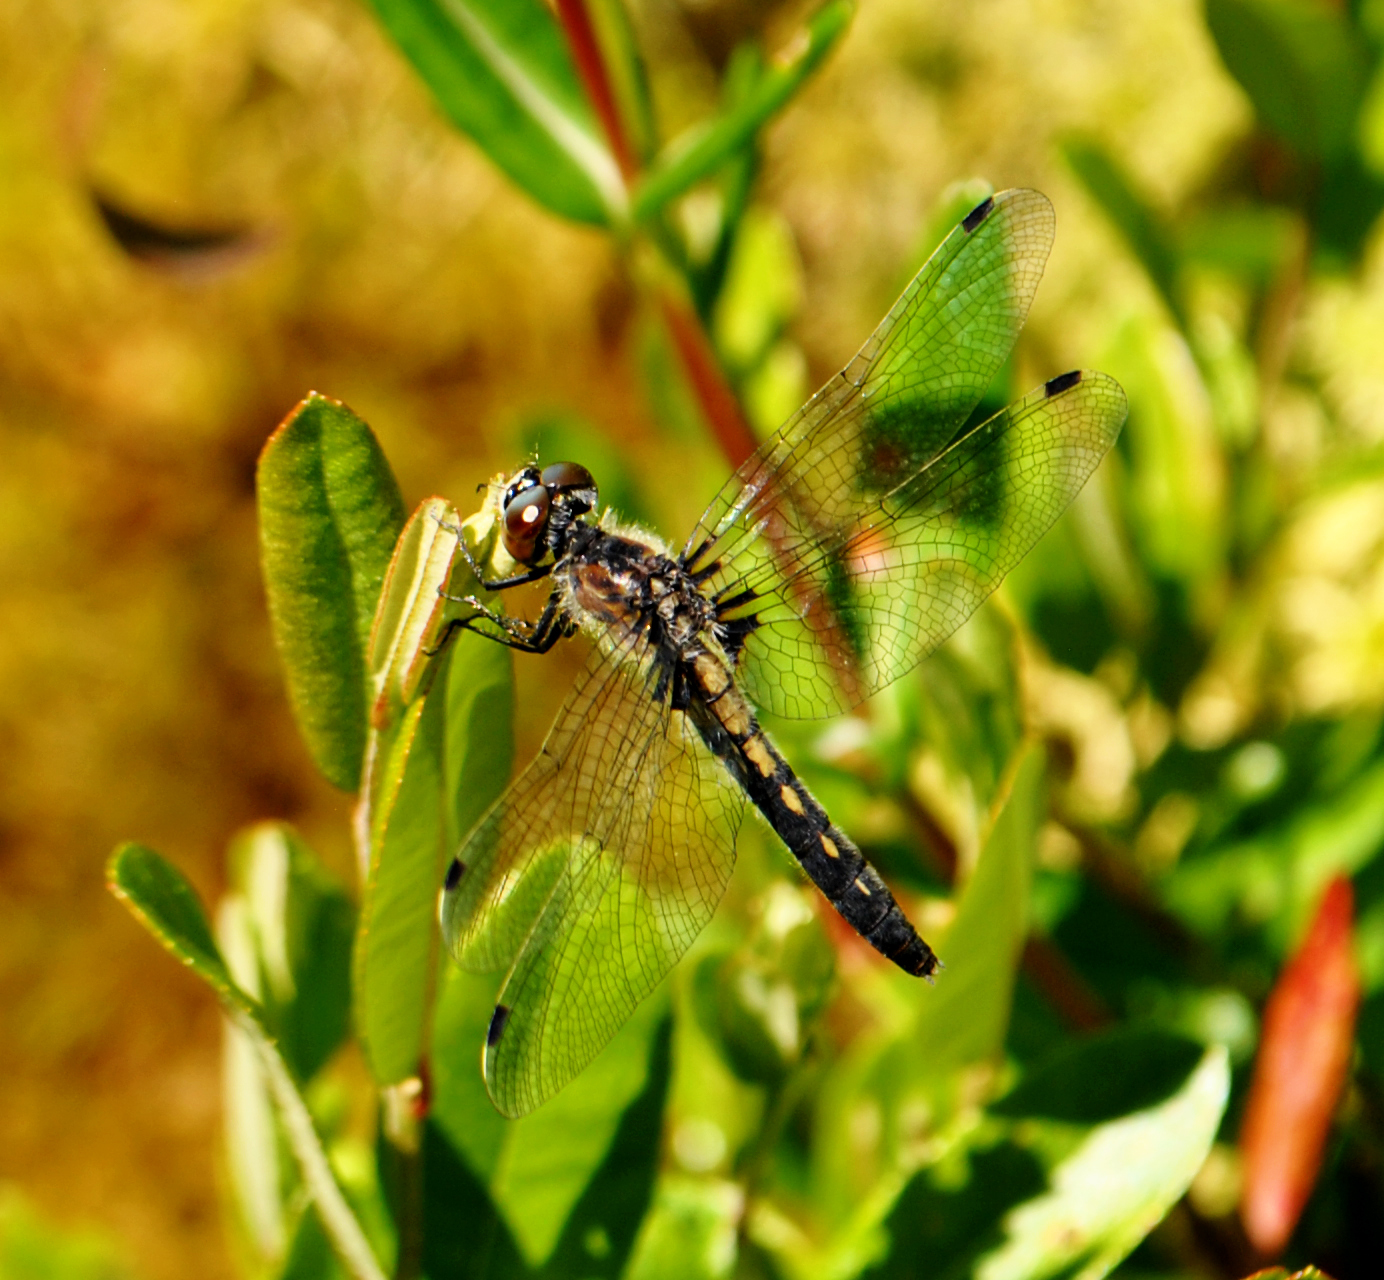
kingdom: Animalia
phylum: Arthropoda
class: Insecta
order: Odonata
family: Libellulidae
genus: Leucorrhinia
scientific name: Leucorrhinia frigida
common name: Frosted whiteface
